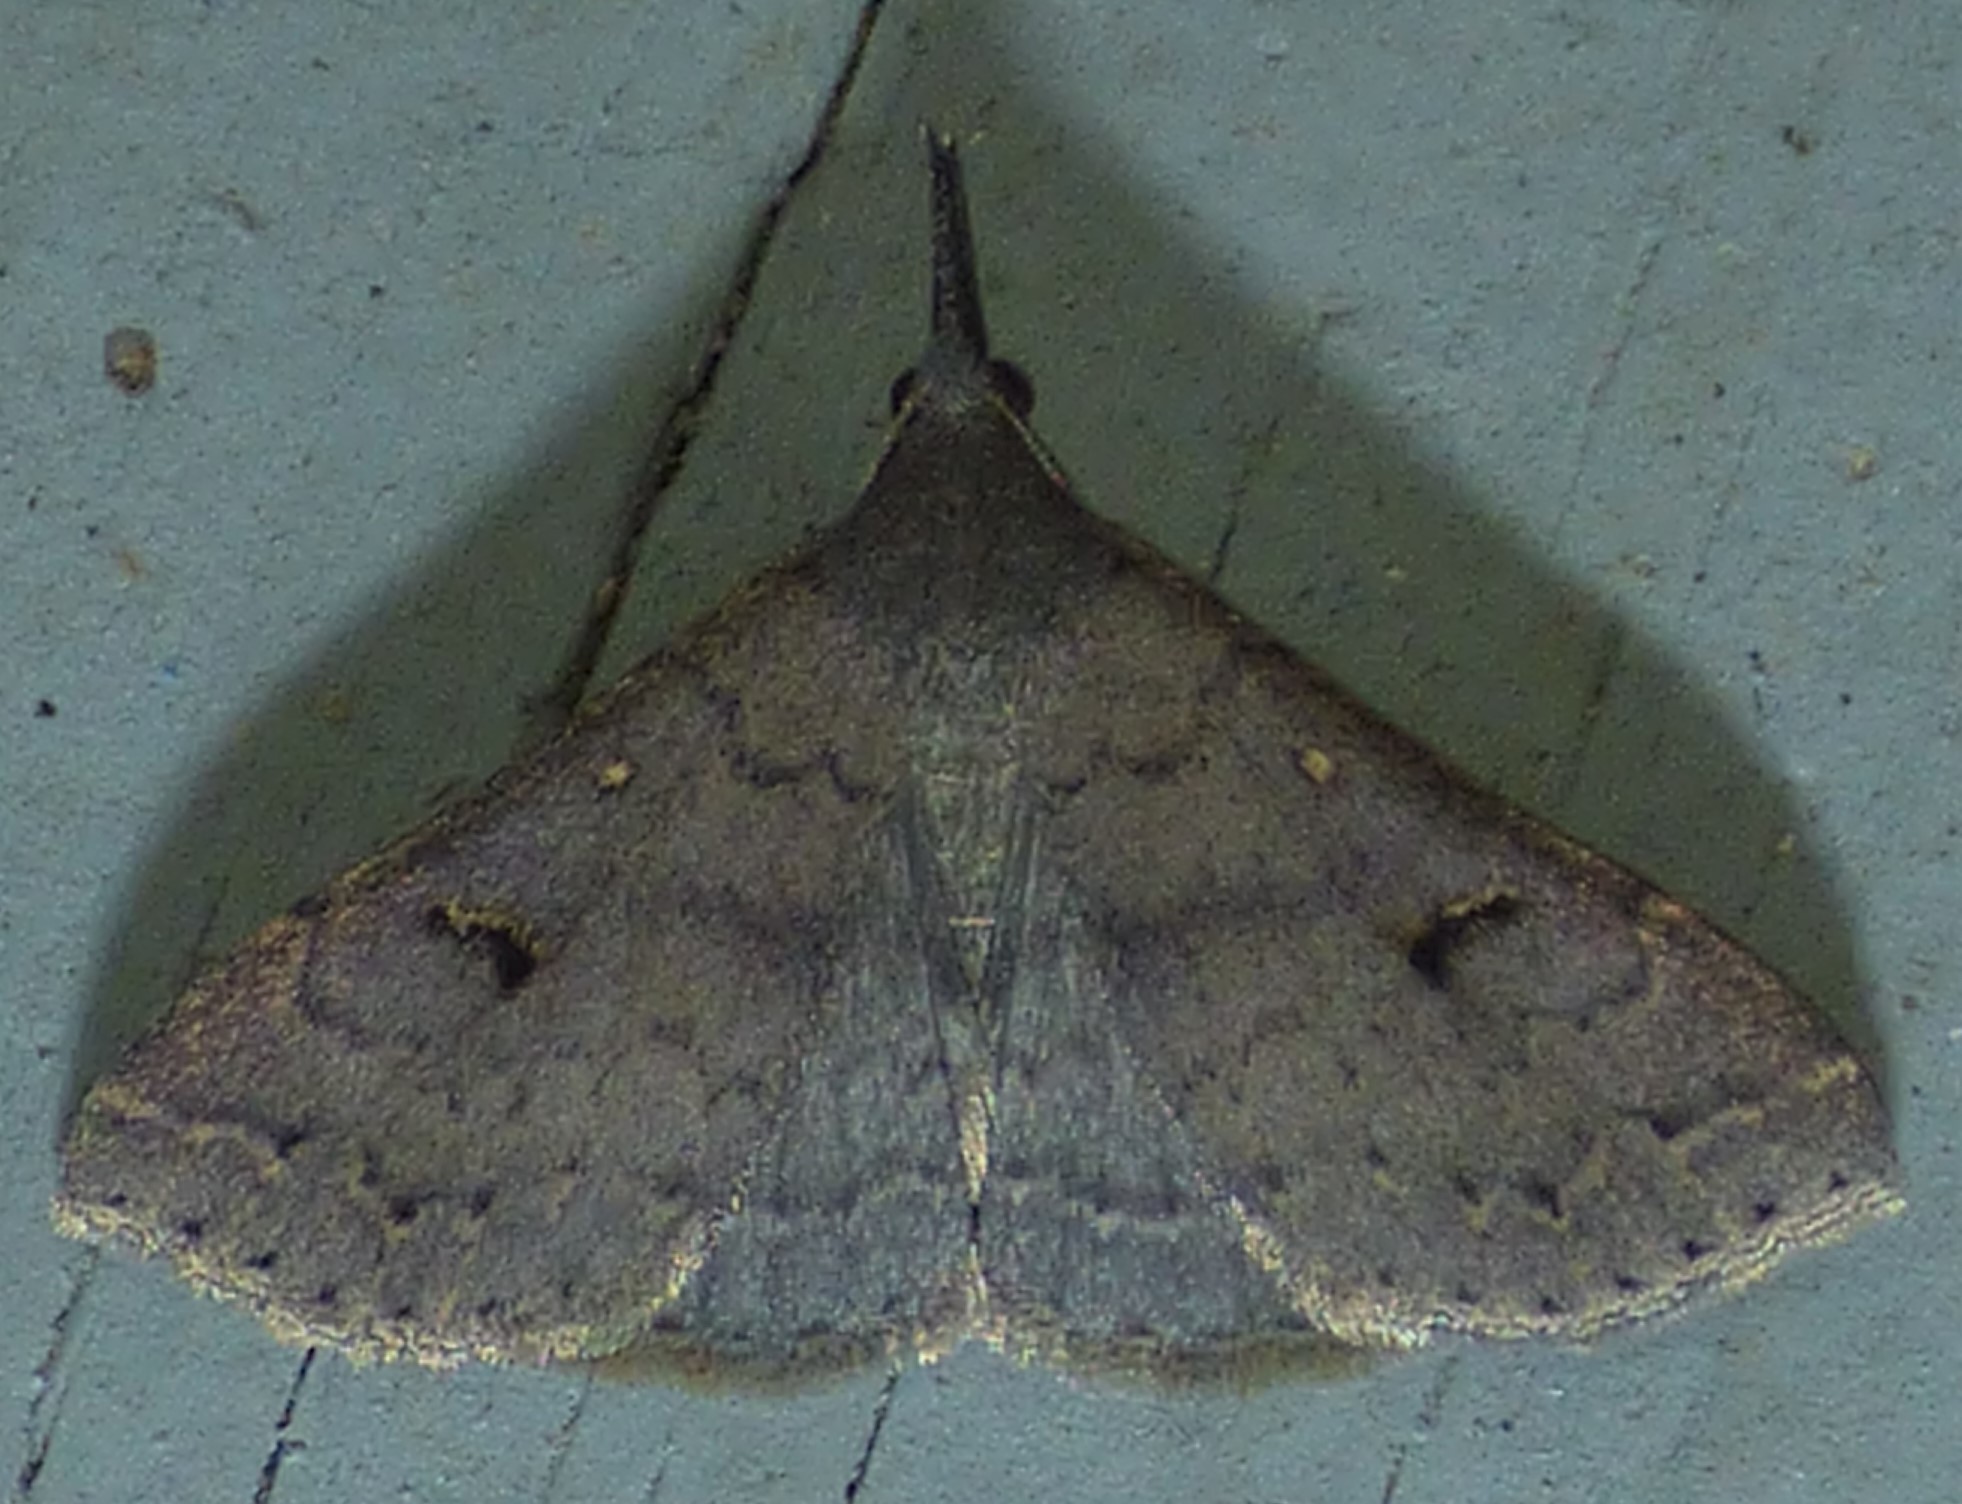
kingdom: Animalia
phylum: Arthropoda
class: Insecta
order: Lepidoptera
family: Erebidae
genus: Renia
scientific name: Renia adspergillus
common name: Speckled renia moth
